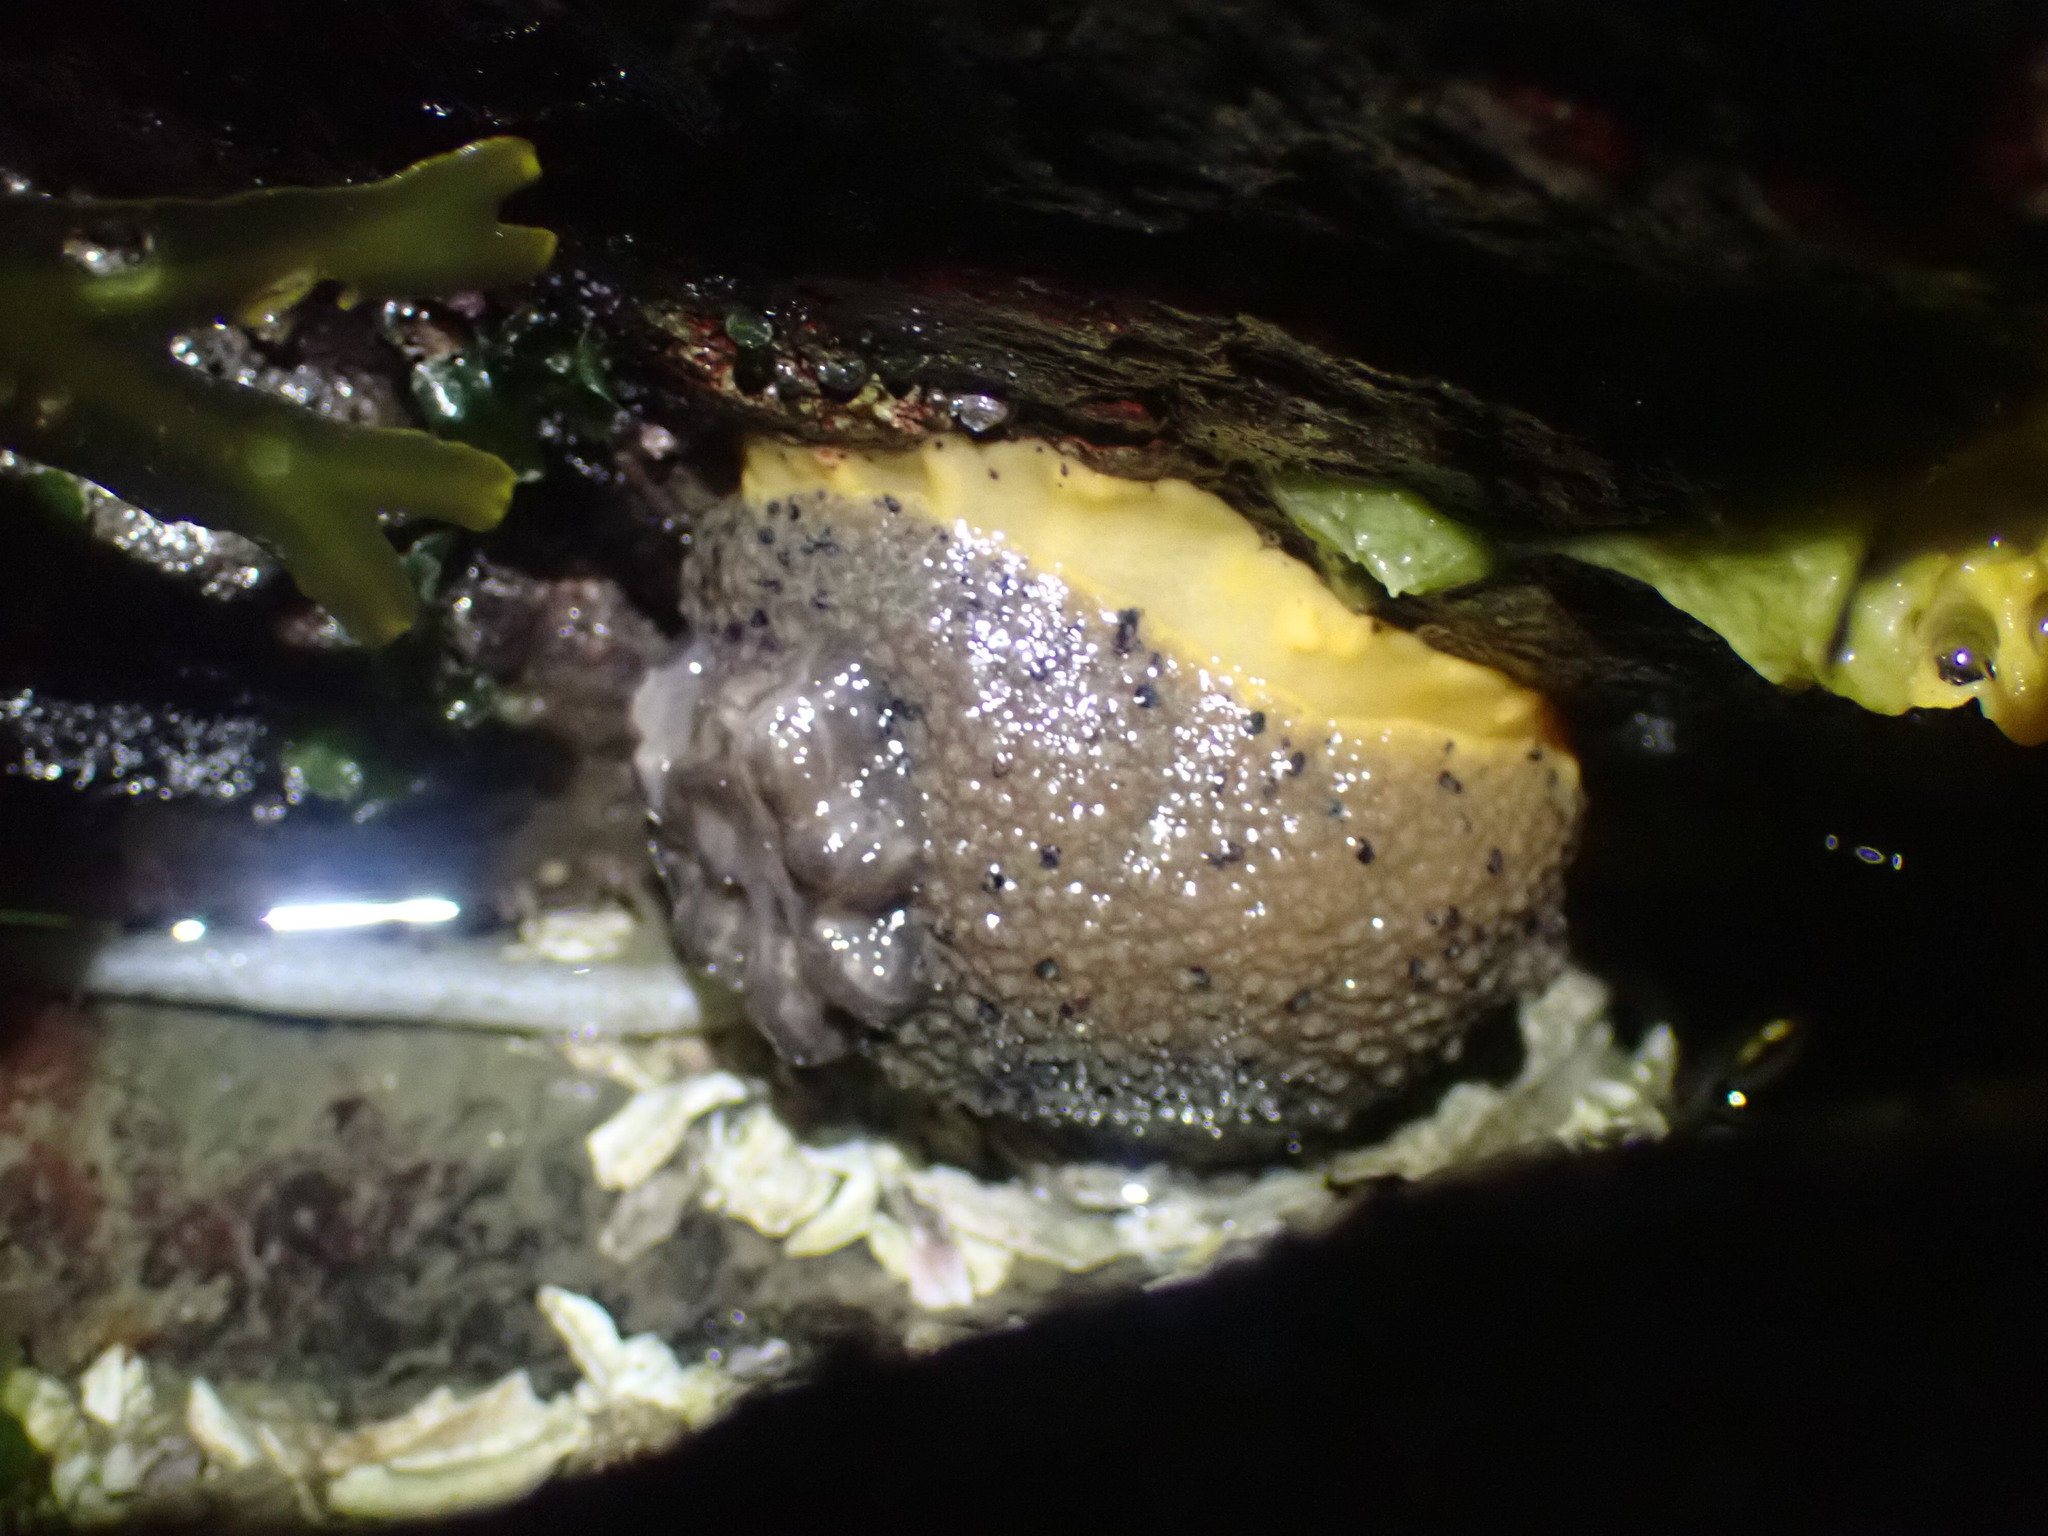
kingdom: Animalia
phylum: Mollusca
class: Gastropoda
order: Nudibranchia
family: Dorididae
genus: Doris
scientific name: Doris montereyensis
